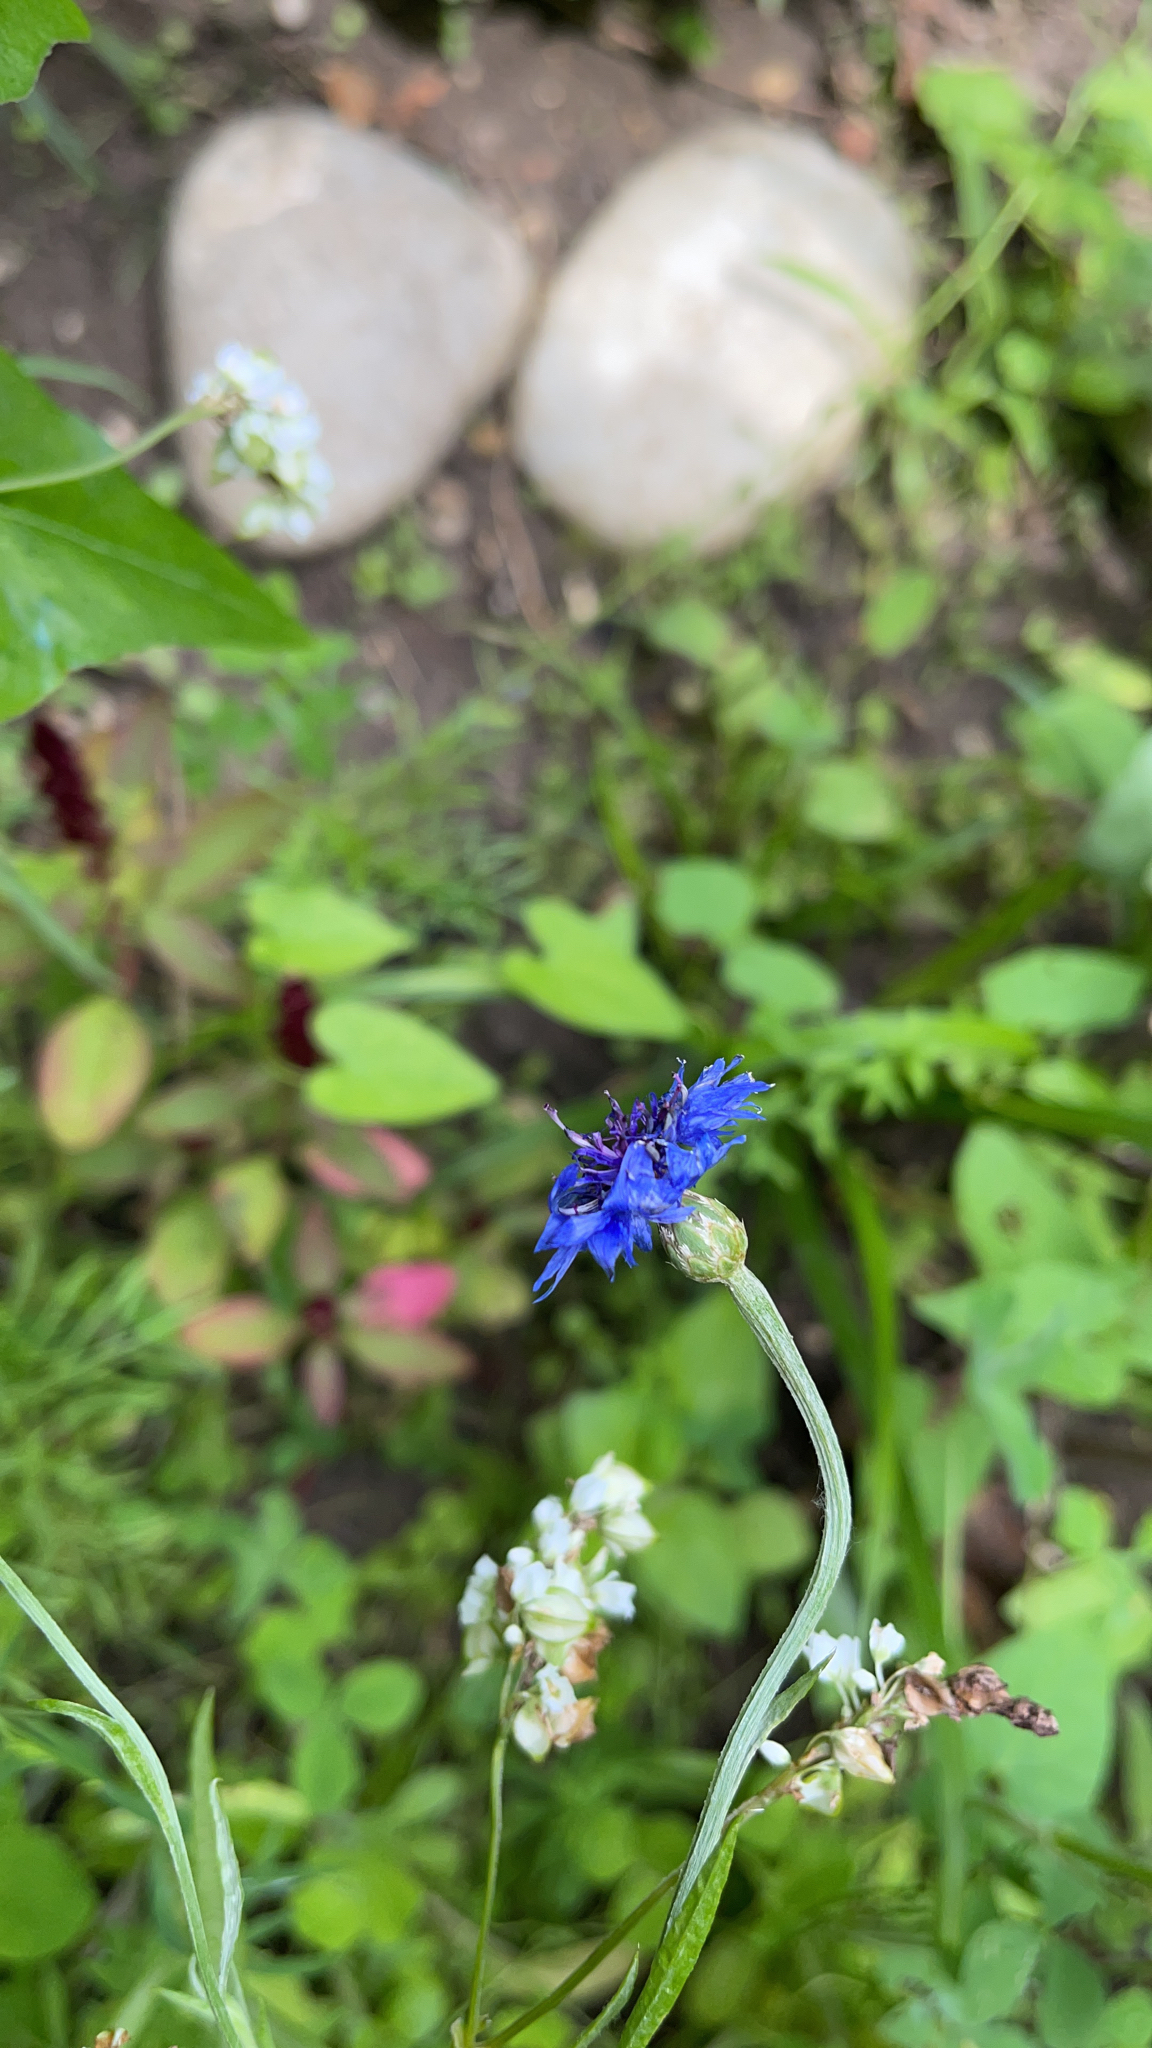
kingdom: Plantae
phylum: Tracheophyta
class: Magnoliopsida
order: Asterales
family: Asteraceae
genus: Centaurea
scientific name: Centaurea cyanus
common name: Cornflower
